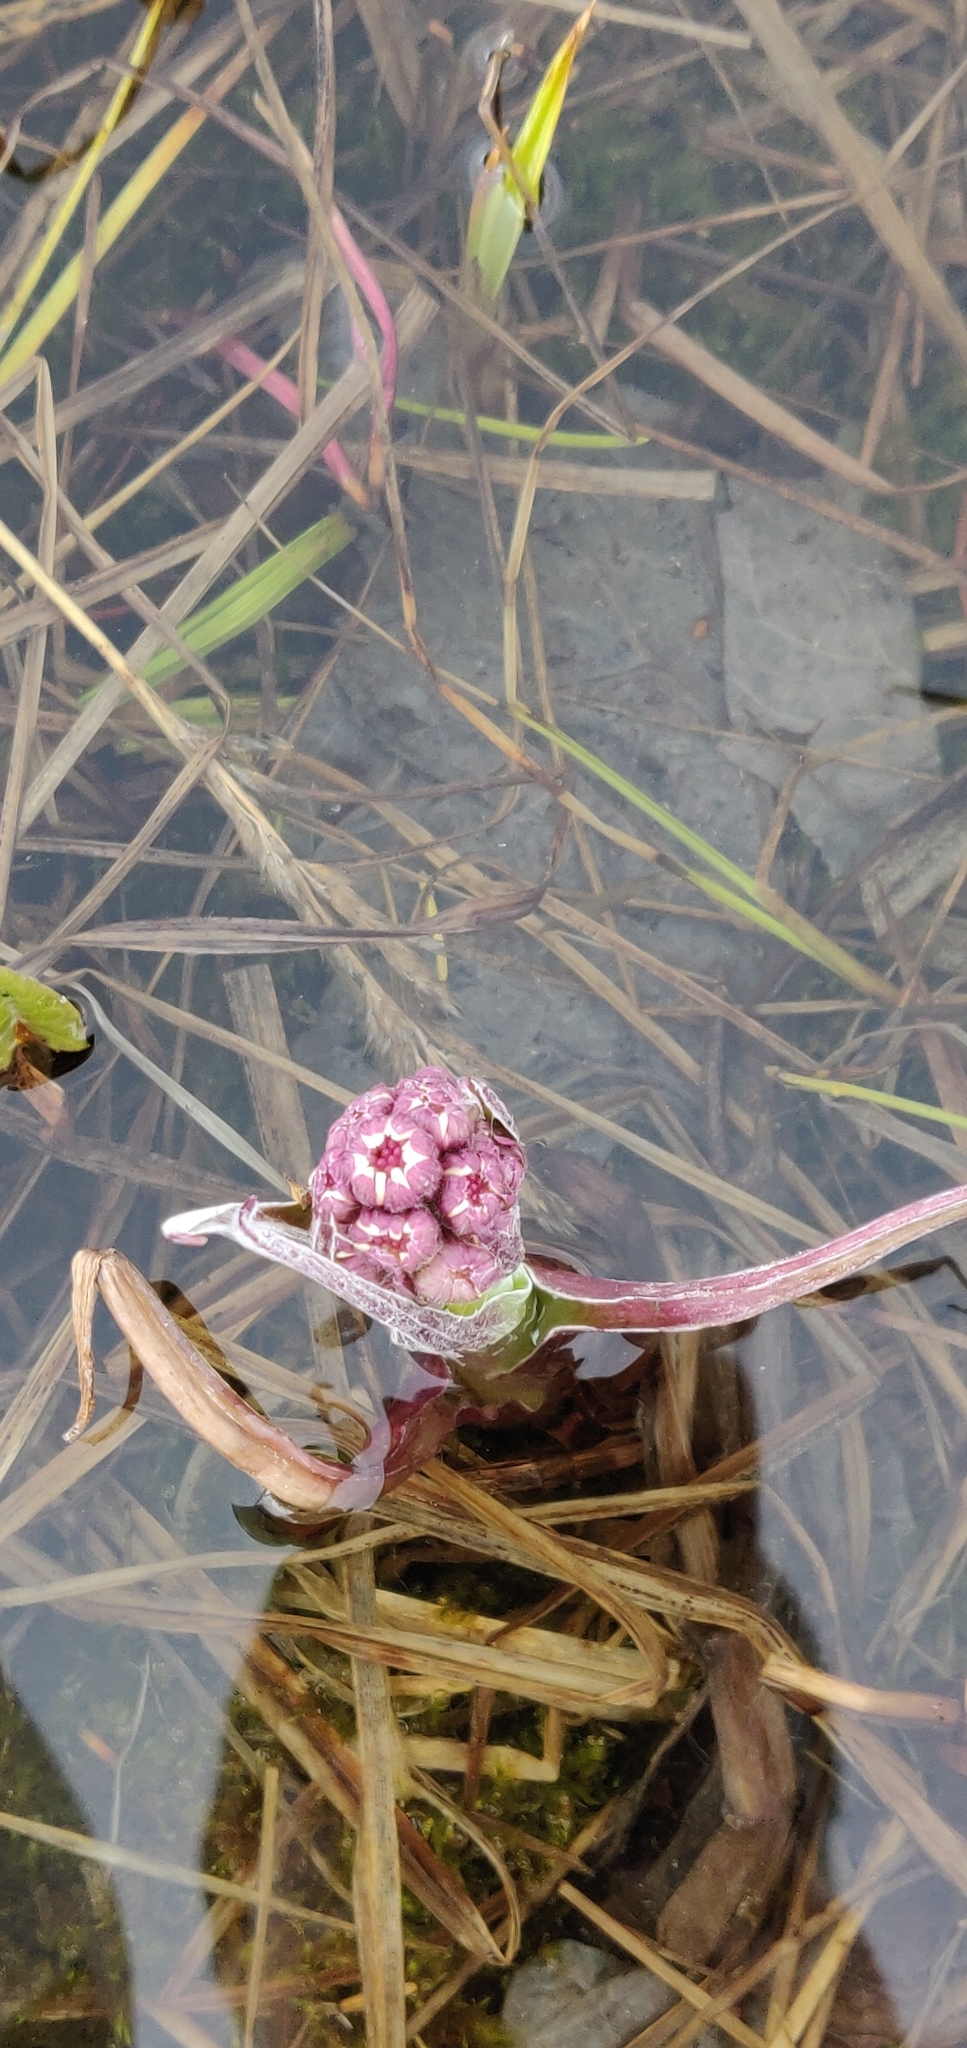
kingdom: Plantae
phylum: Tracheophyta
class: Magnoliopsida
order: Asterales
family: Asteraceae
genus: Petasites
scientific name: Petasites frigidus
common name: Arctic butterbur
